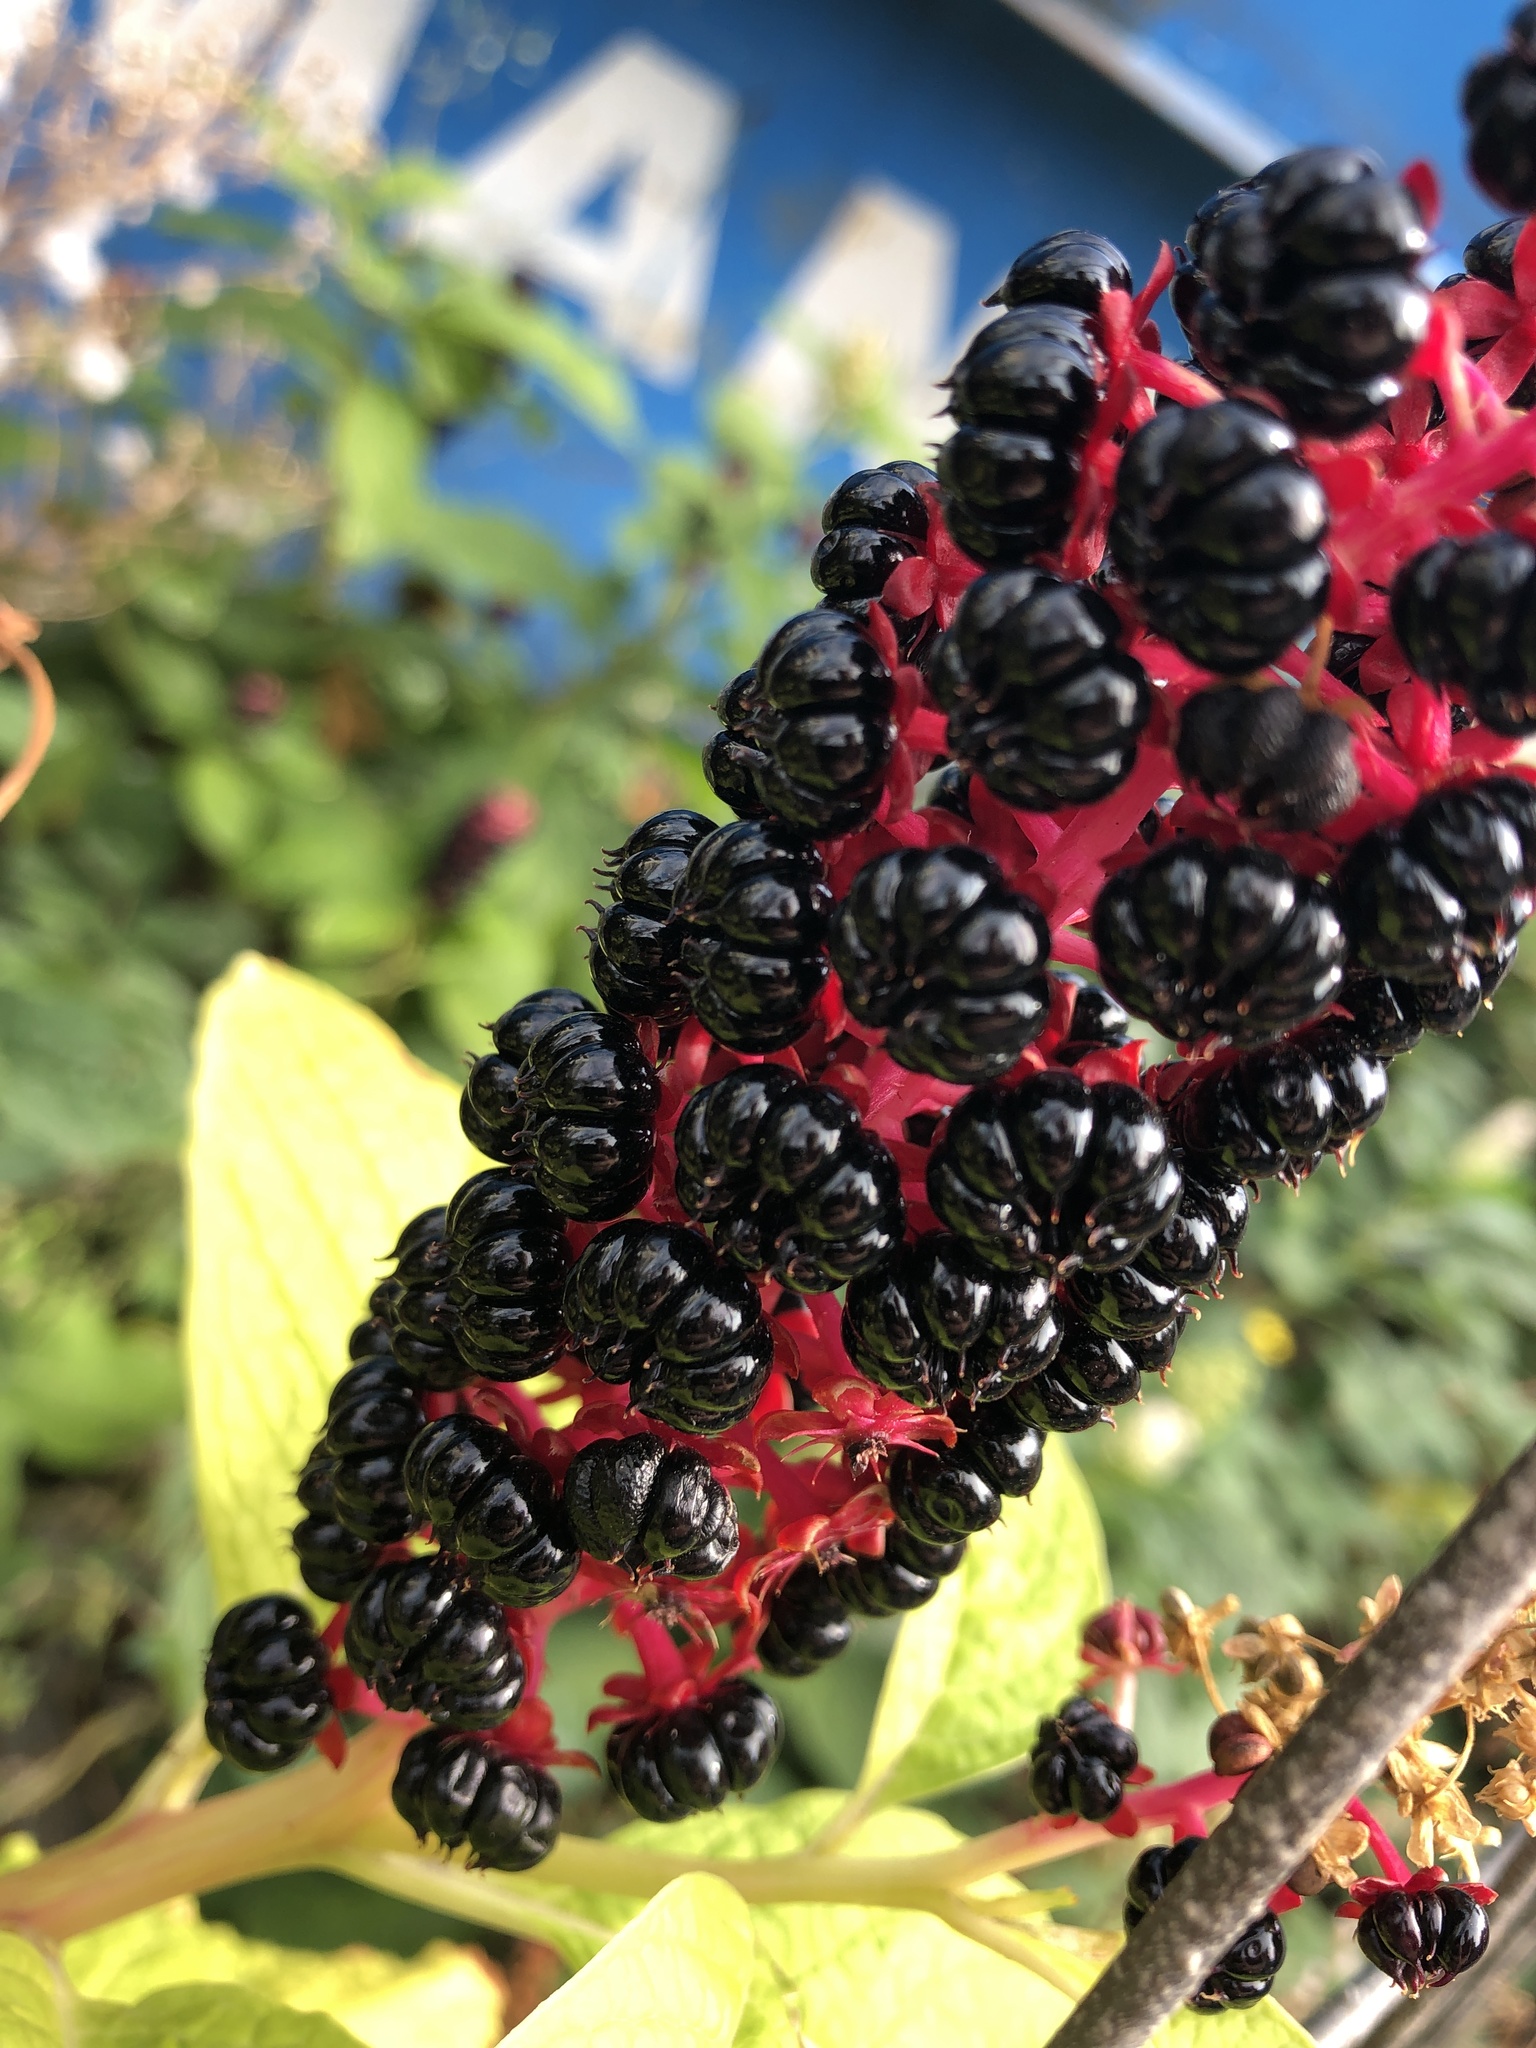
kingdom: Plantae
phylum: Tracheophyta
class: Magnoliopsida
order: Caryophyllales
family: Phytolaccaceae
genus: Phytolacca
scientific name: Phytolacca acinosa
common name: Indian pokeweed
